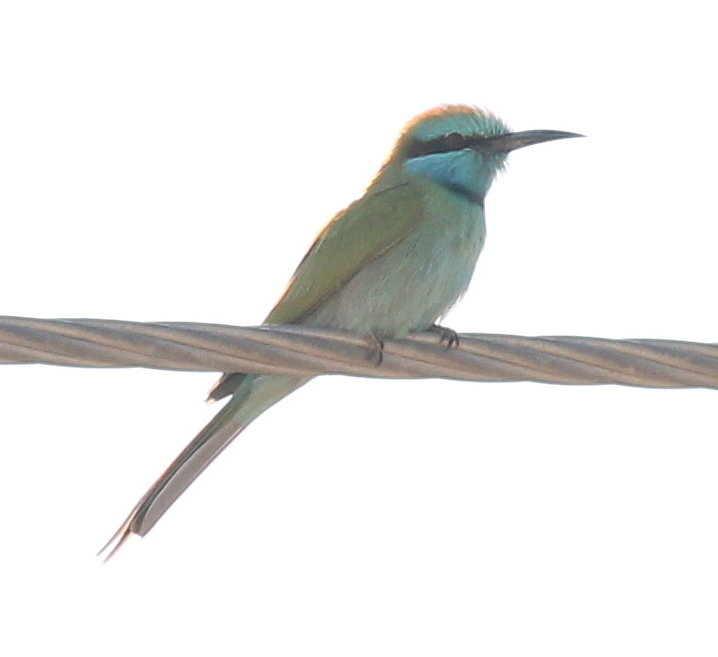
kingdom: Animalia
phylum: Chordata
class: Aves
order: Coraciiformes
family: Meropidae
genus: Merops
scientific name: Merops cyanophrys
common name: Arabian green bee-eater
